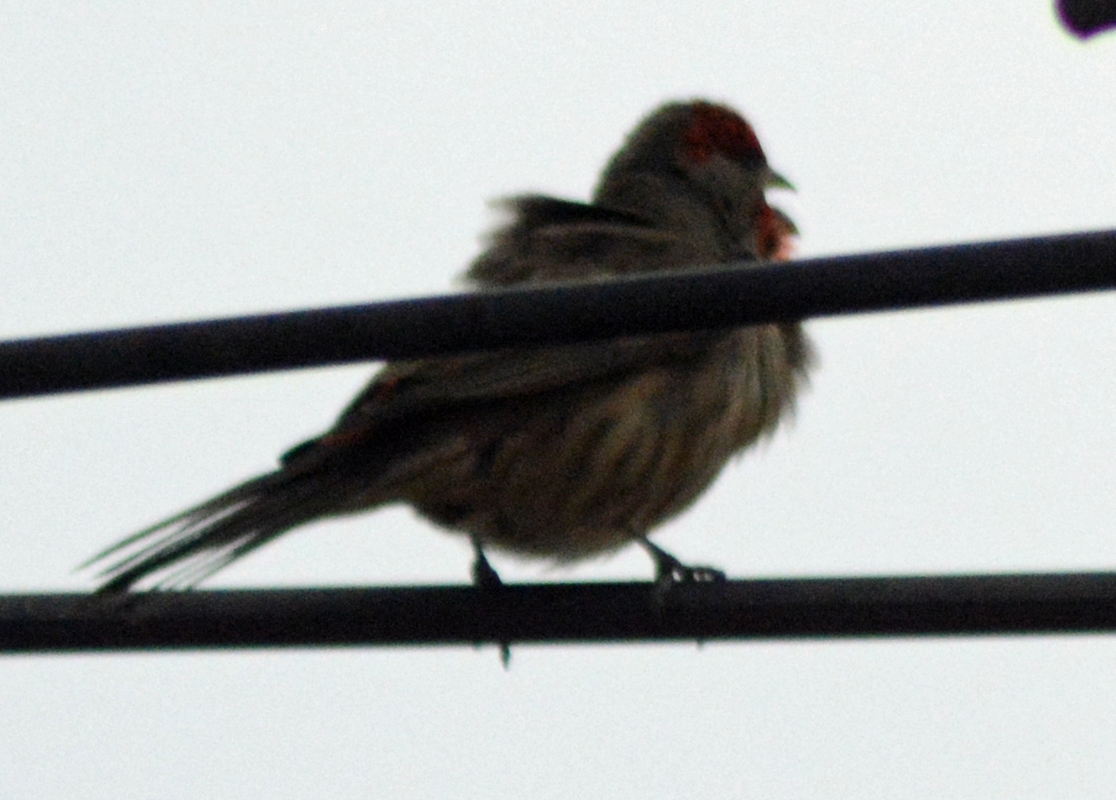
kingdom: Animalia
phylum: Chordata
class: Aves
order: Passeriformes
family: Fringillidae
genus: Haemorhous
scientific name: Haemorhous mexicanus
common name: House finch
